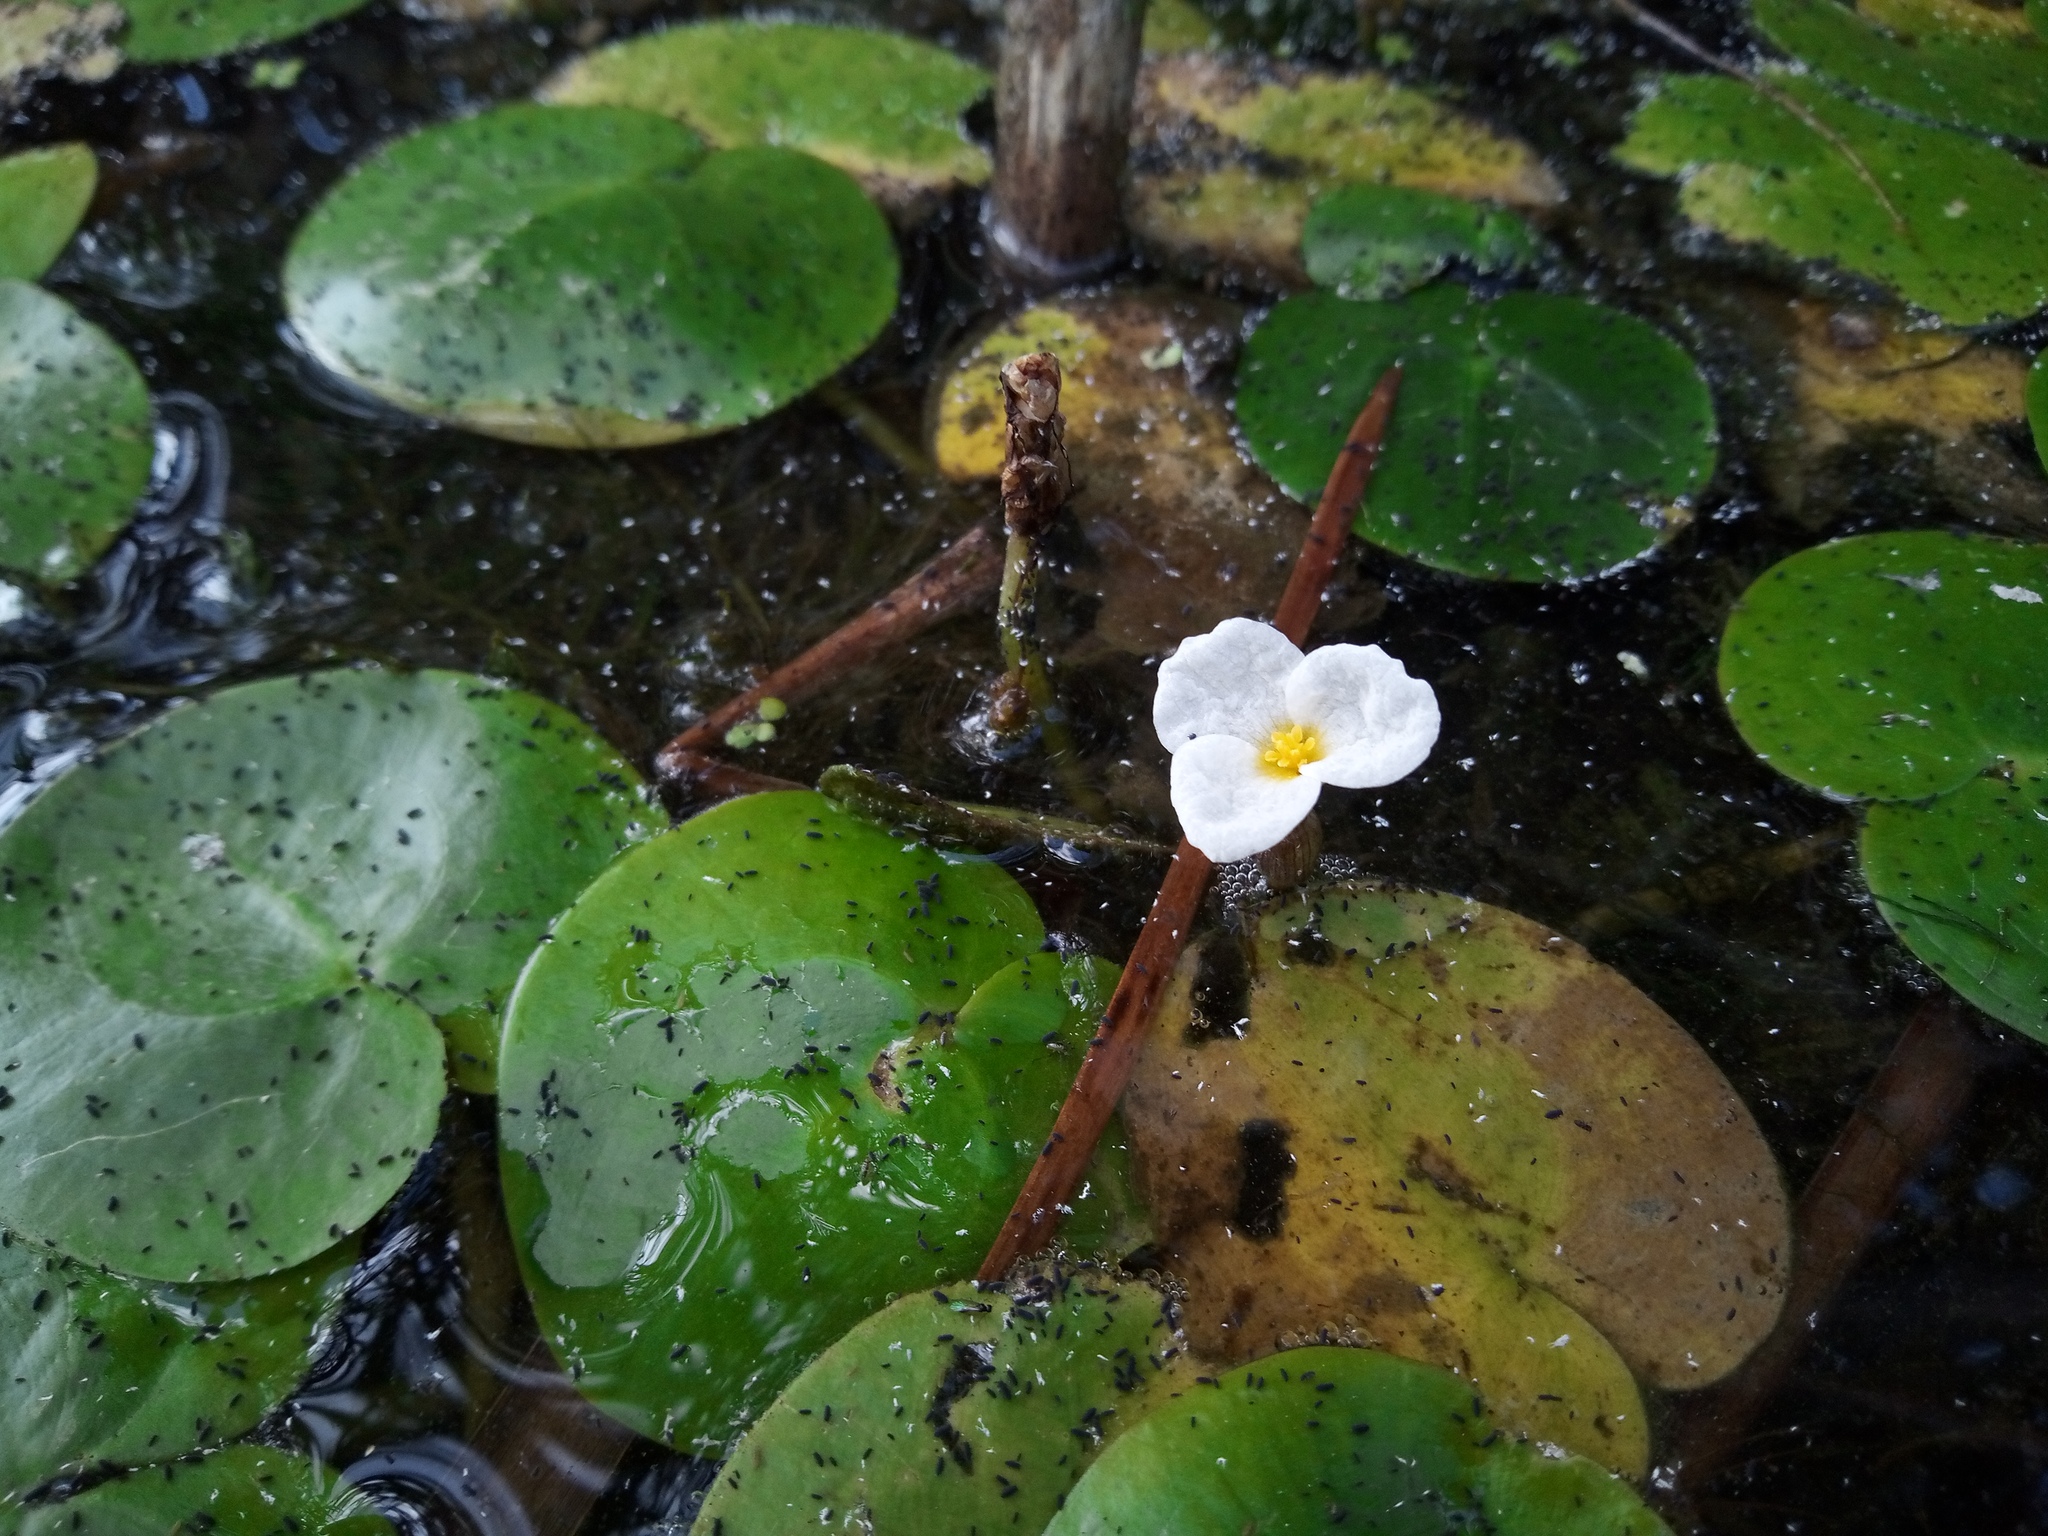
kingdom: Plantae
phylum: Tracheophyta
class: Liliopsida
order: Alismatales
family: Hydrocharitaceae
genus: Hydrocharis
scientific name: Hydrocharis morsus-ranae
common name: Frogbit
